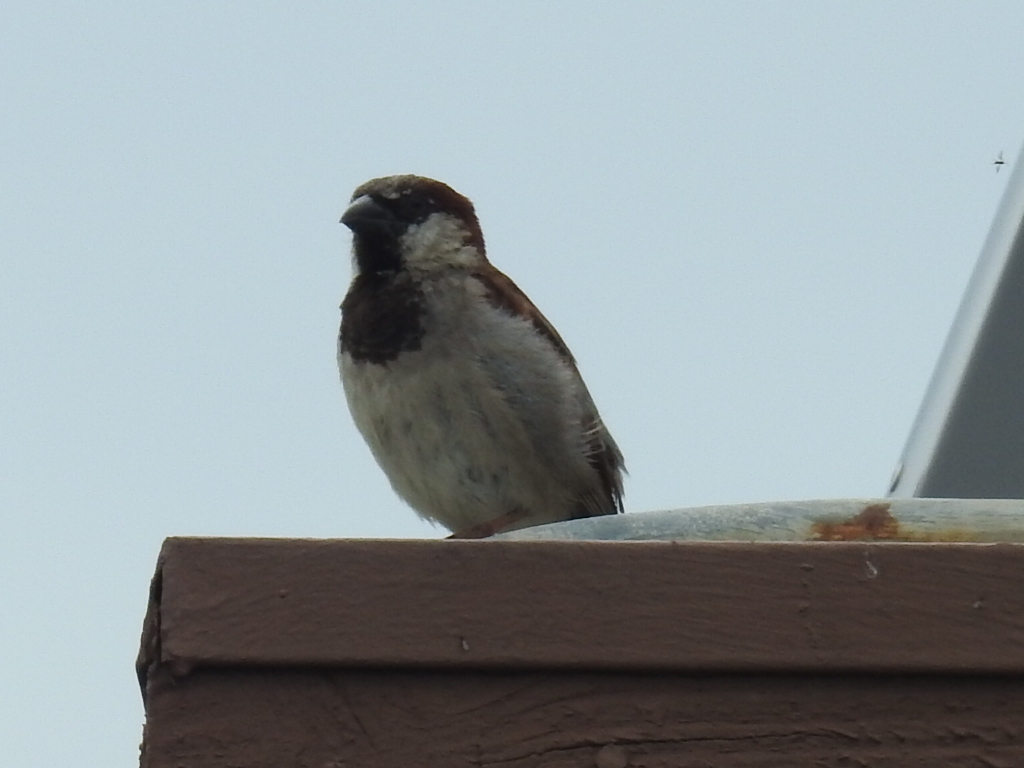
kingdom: Animalia
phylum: Chordata
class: Aves
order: Passeriformes
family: Passeridae
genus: Passer
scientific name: Passer domesticus
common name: House sparrow
